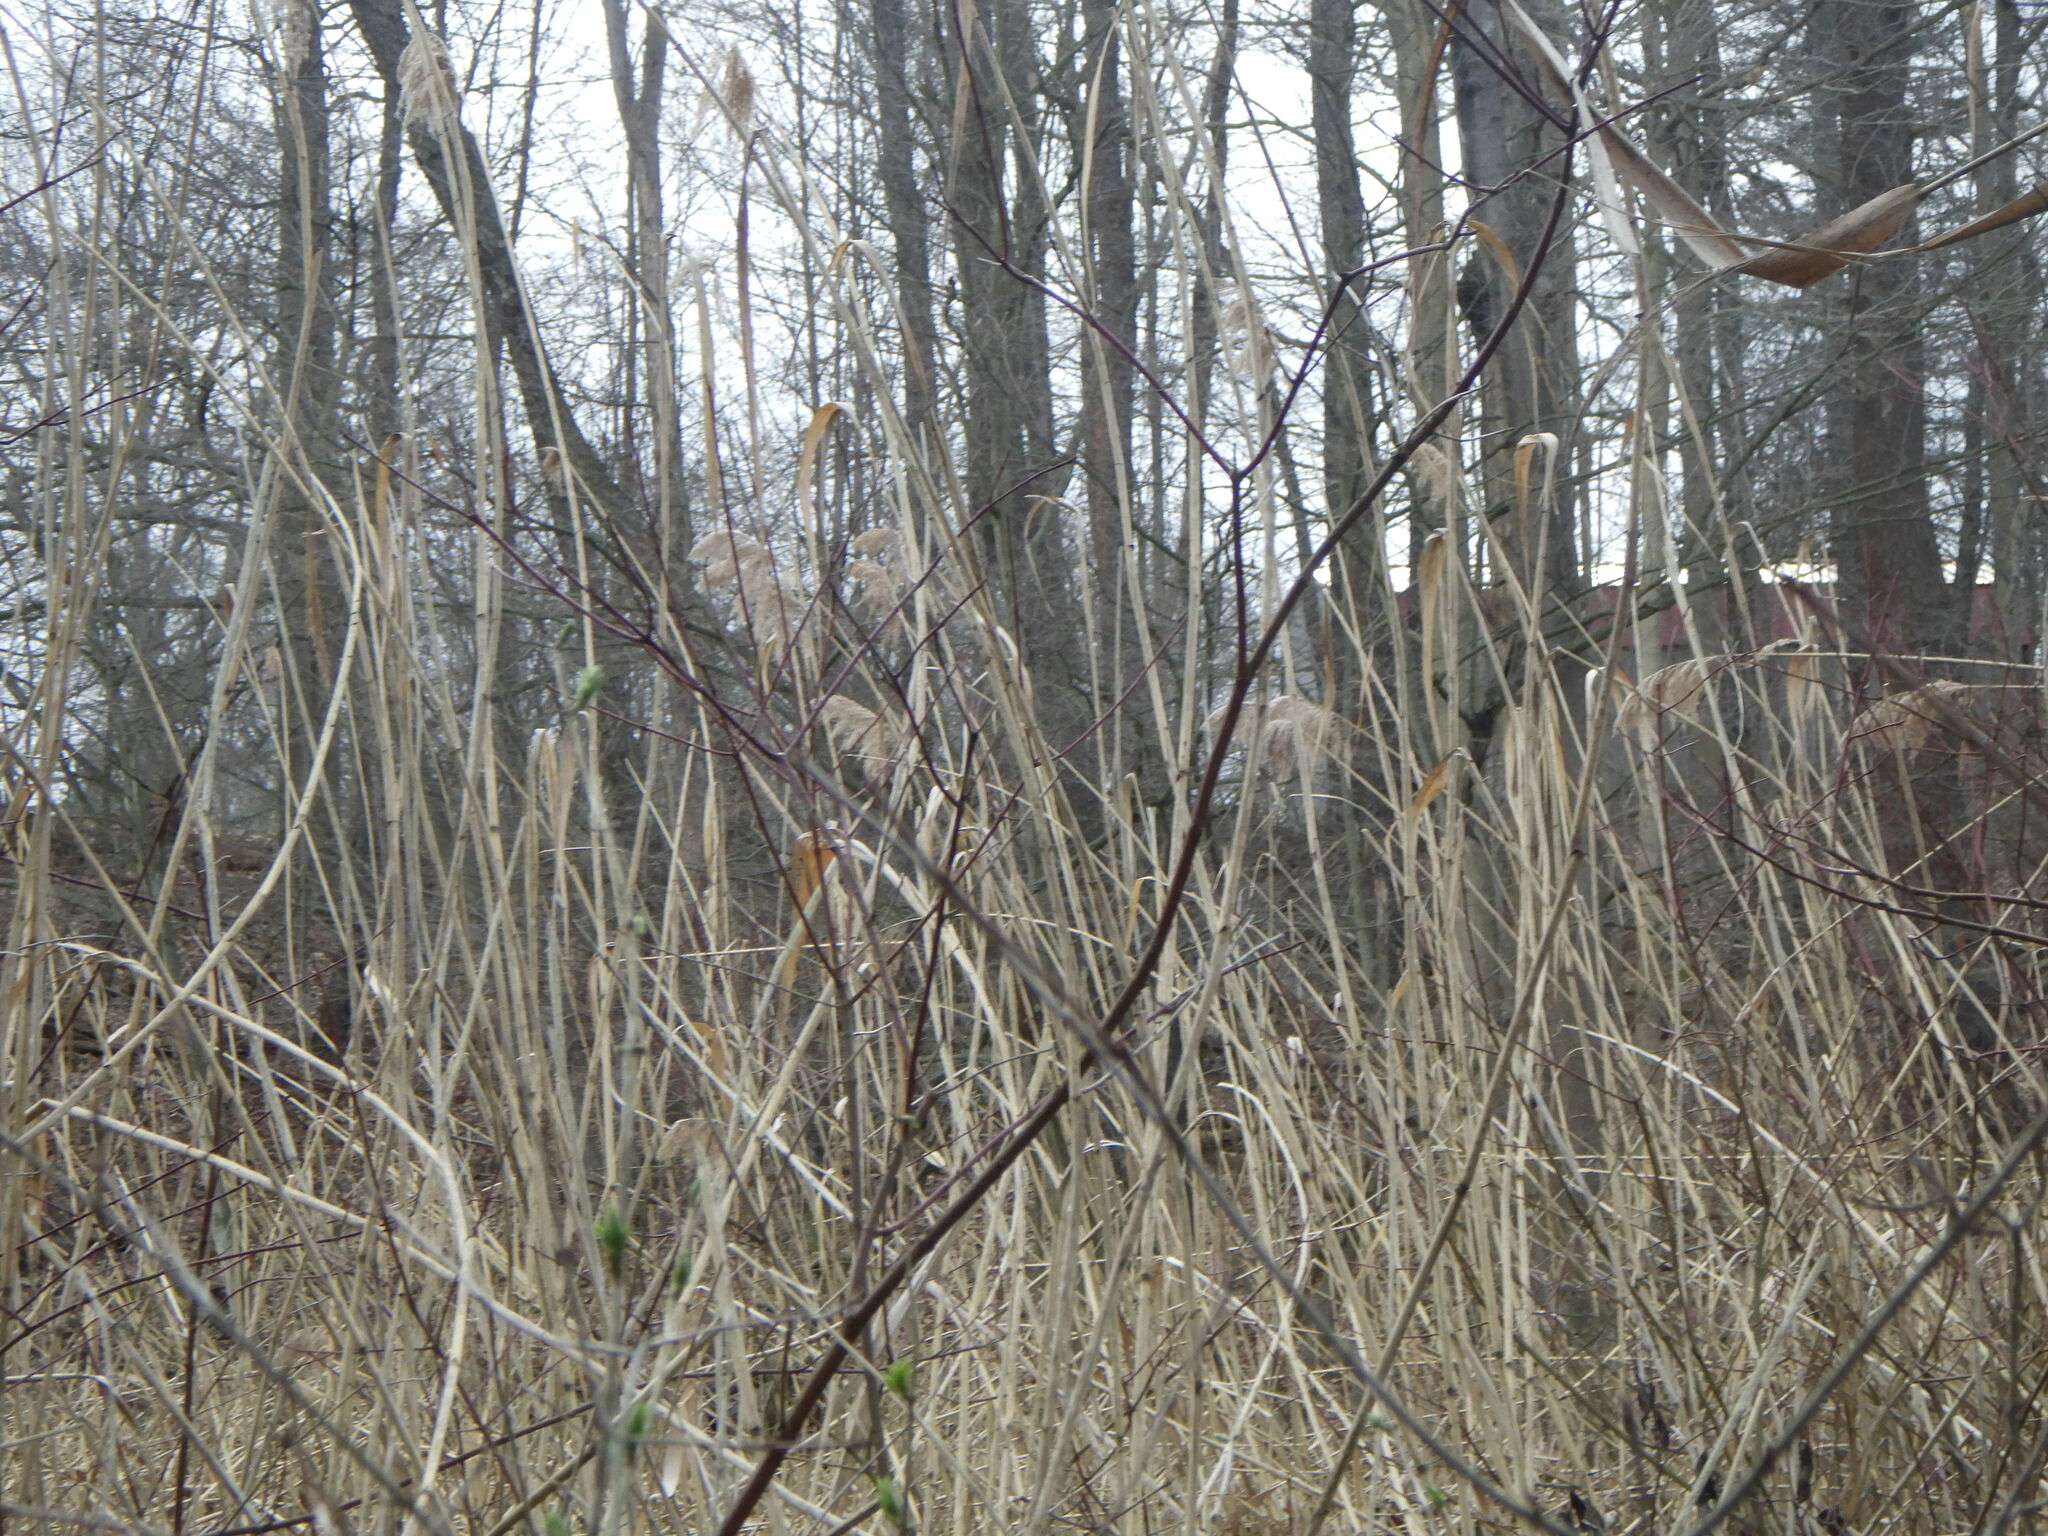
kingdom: Plantae
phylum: Tracheophyta
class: Liliopsida
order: Poales
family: Poaceae
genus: Phragmites
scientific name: Phragmites australis
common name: Common reed
